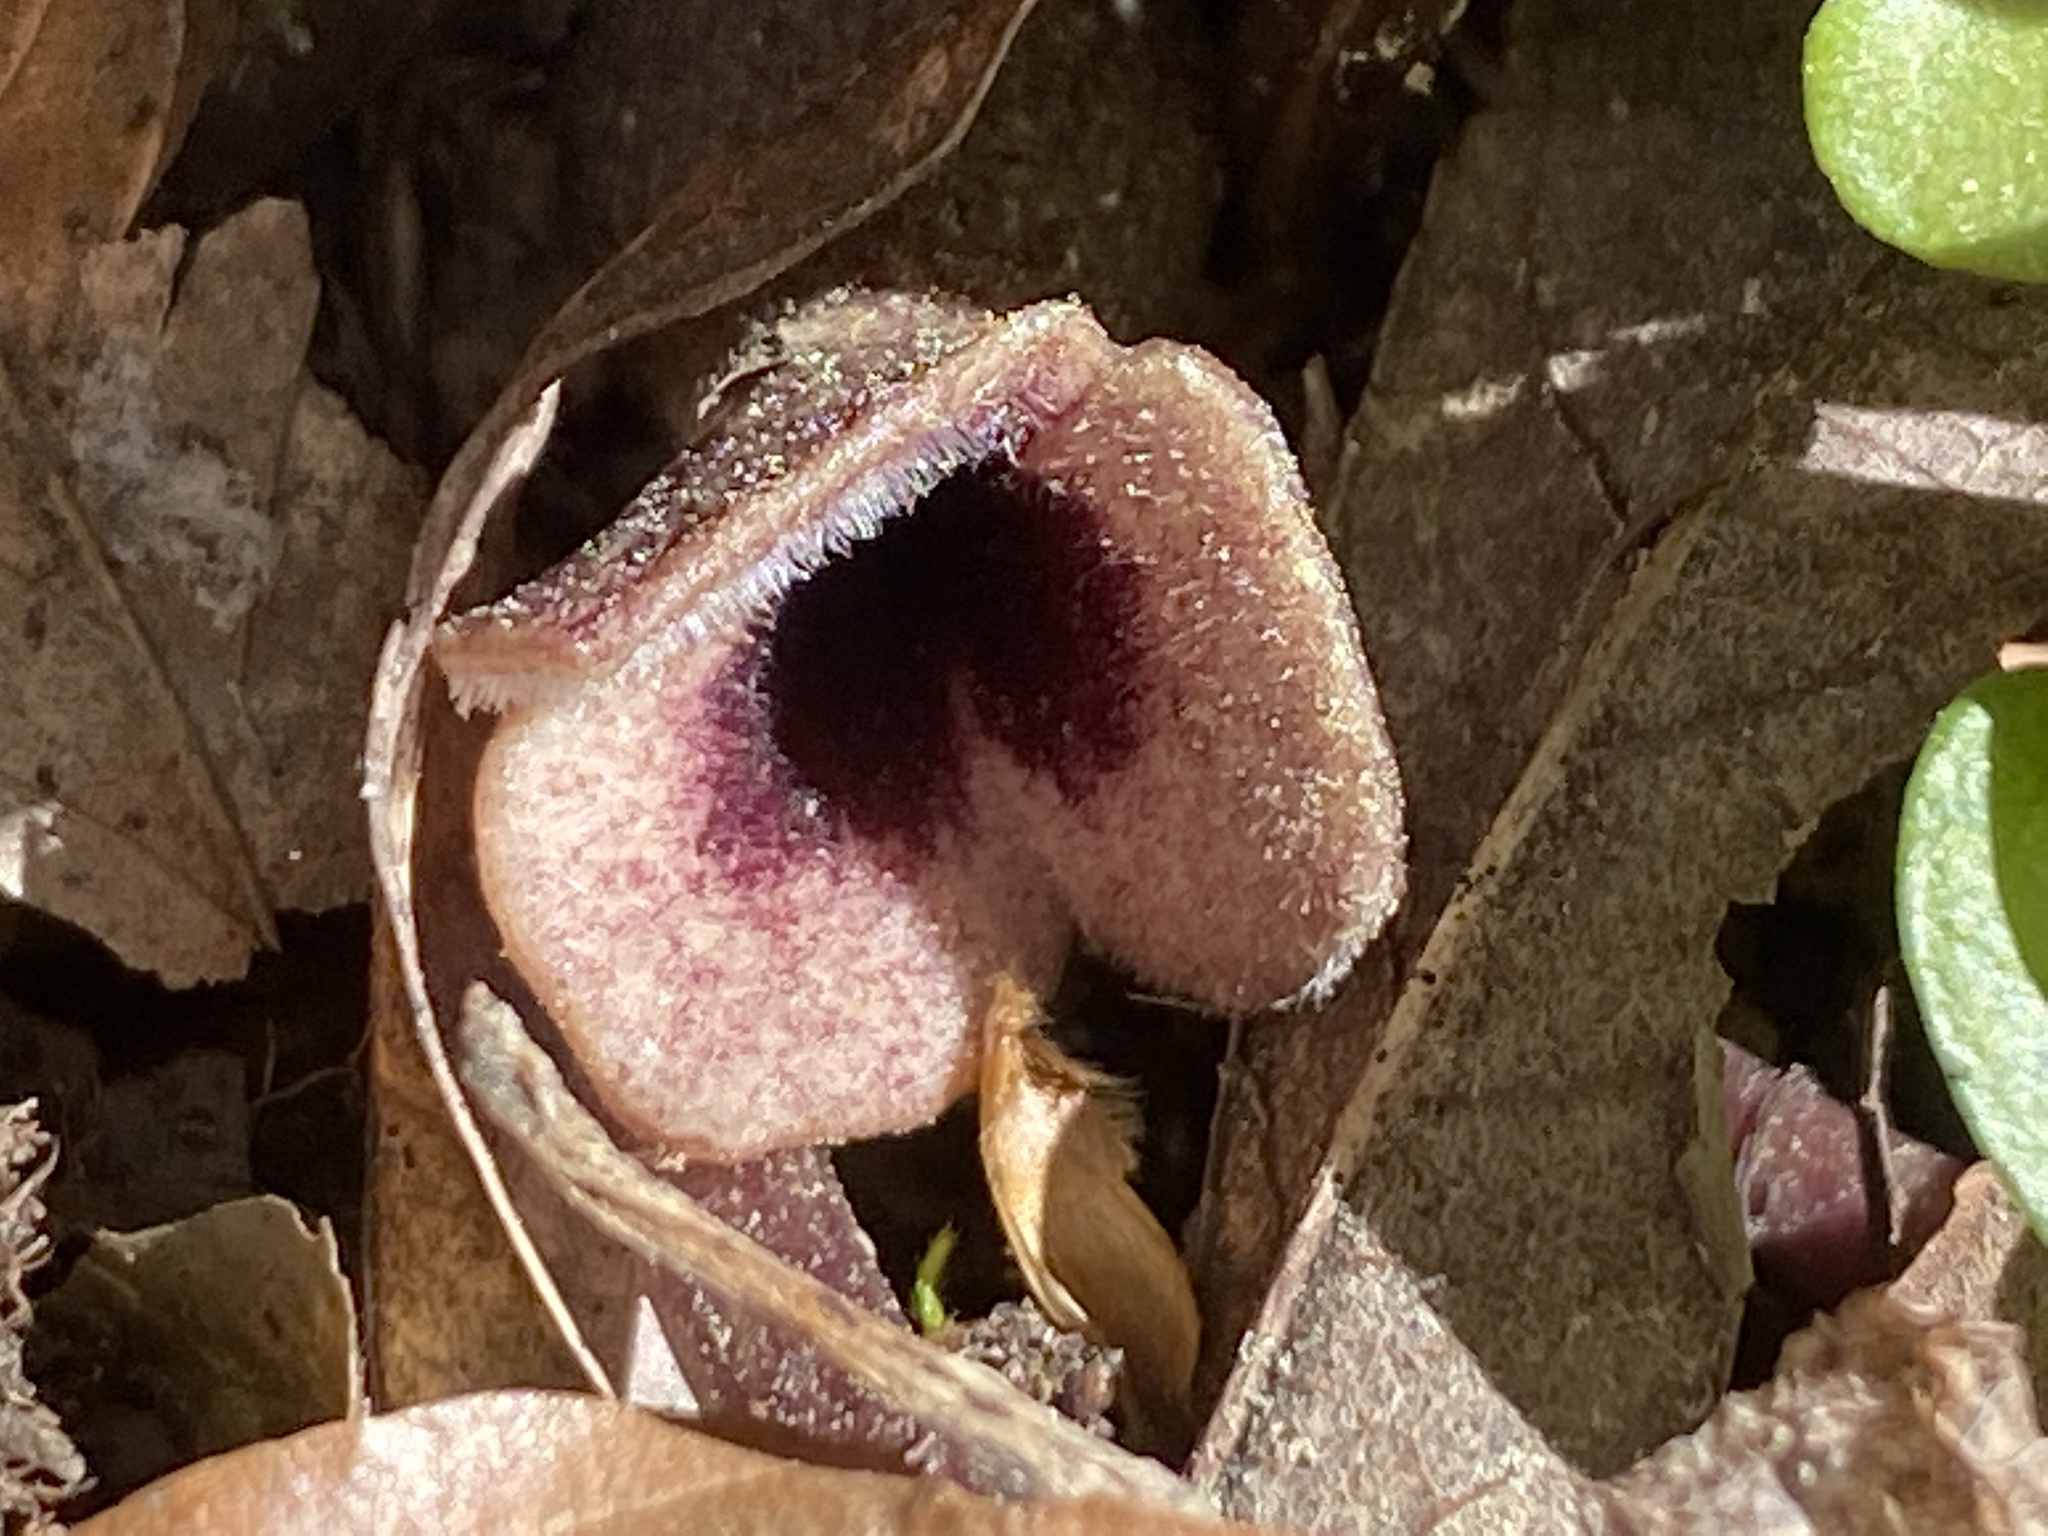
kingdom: Plantae
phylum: Tracheophyta
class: Magnoliopsida
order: Piperales
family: Aristolochiaceae
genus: Hexastylis
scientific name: Hexastylis arifolia
